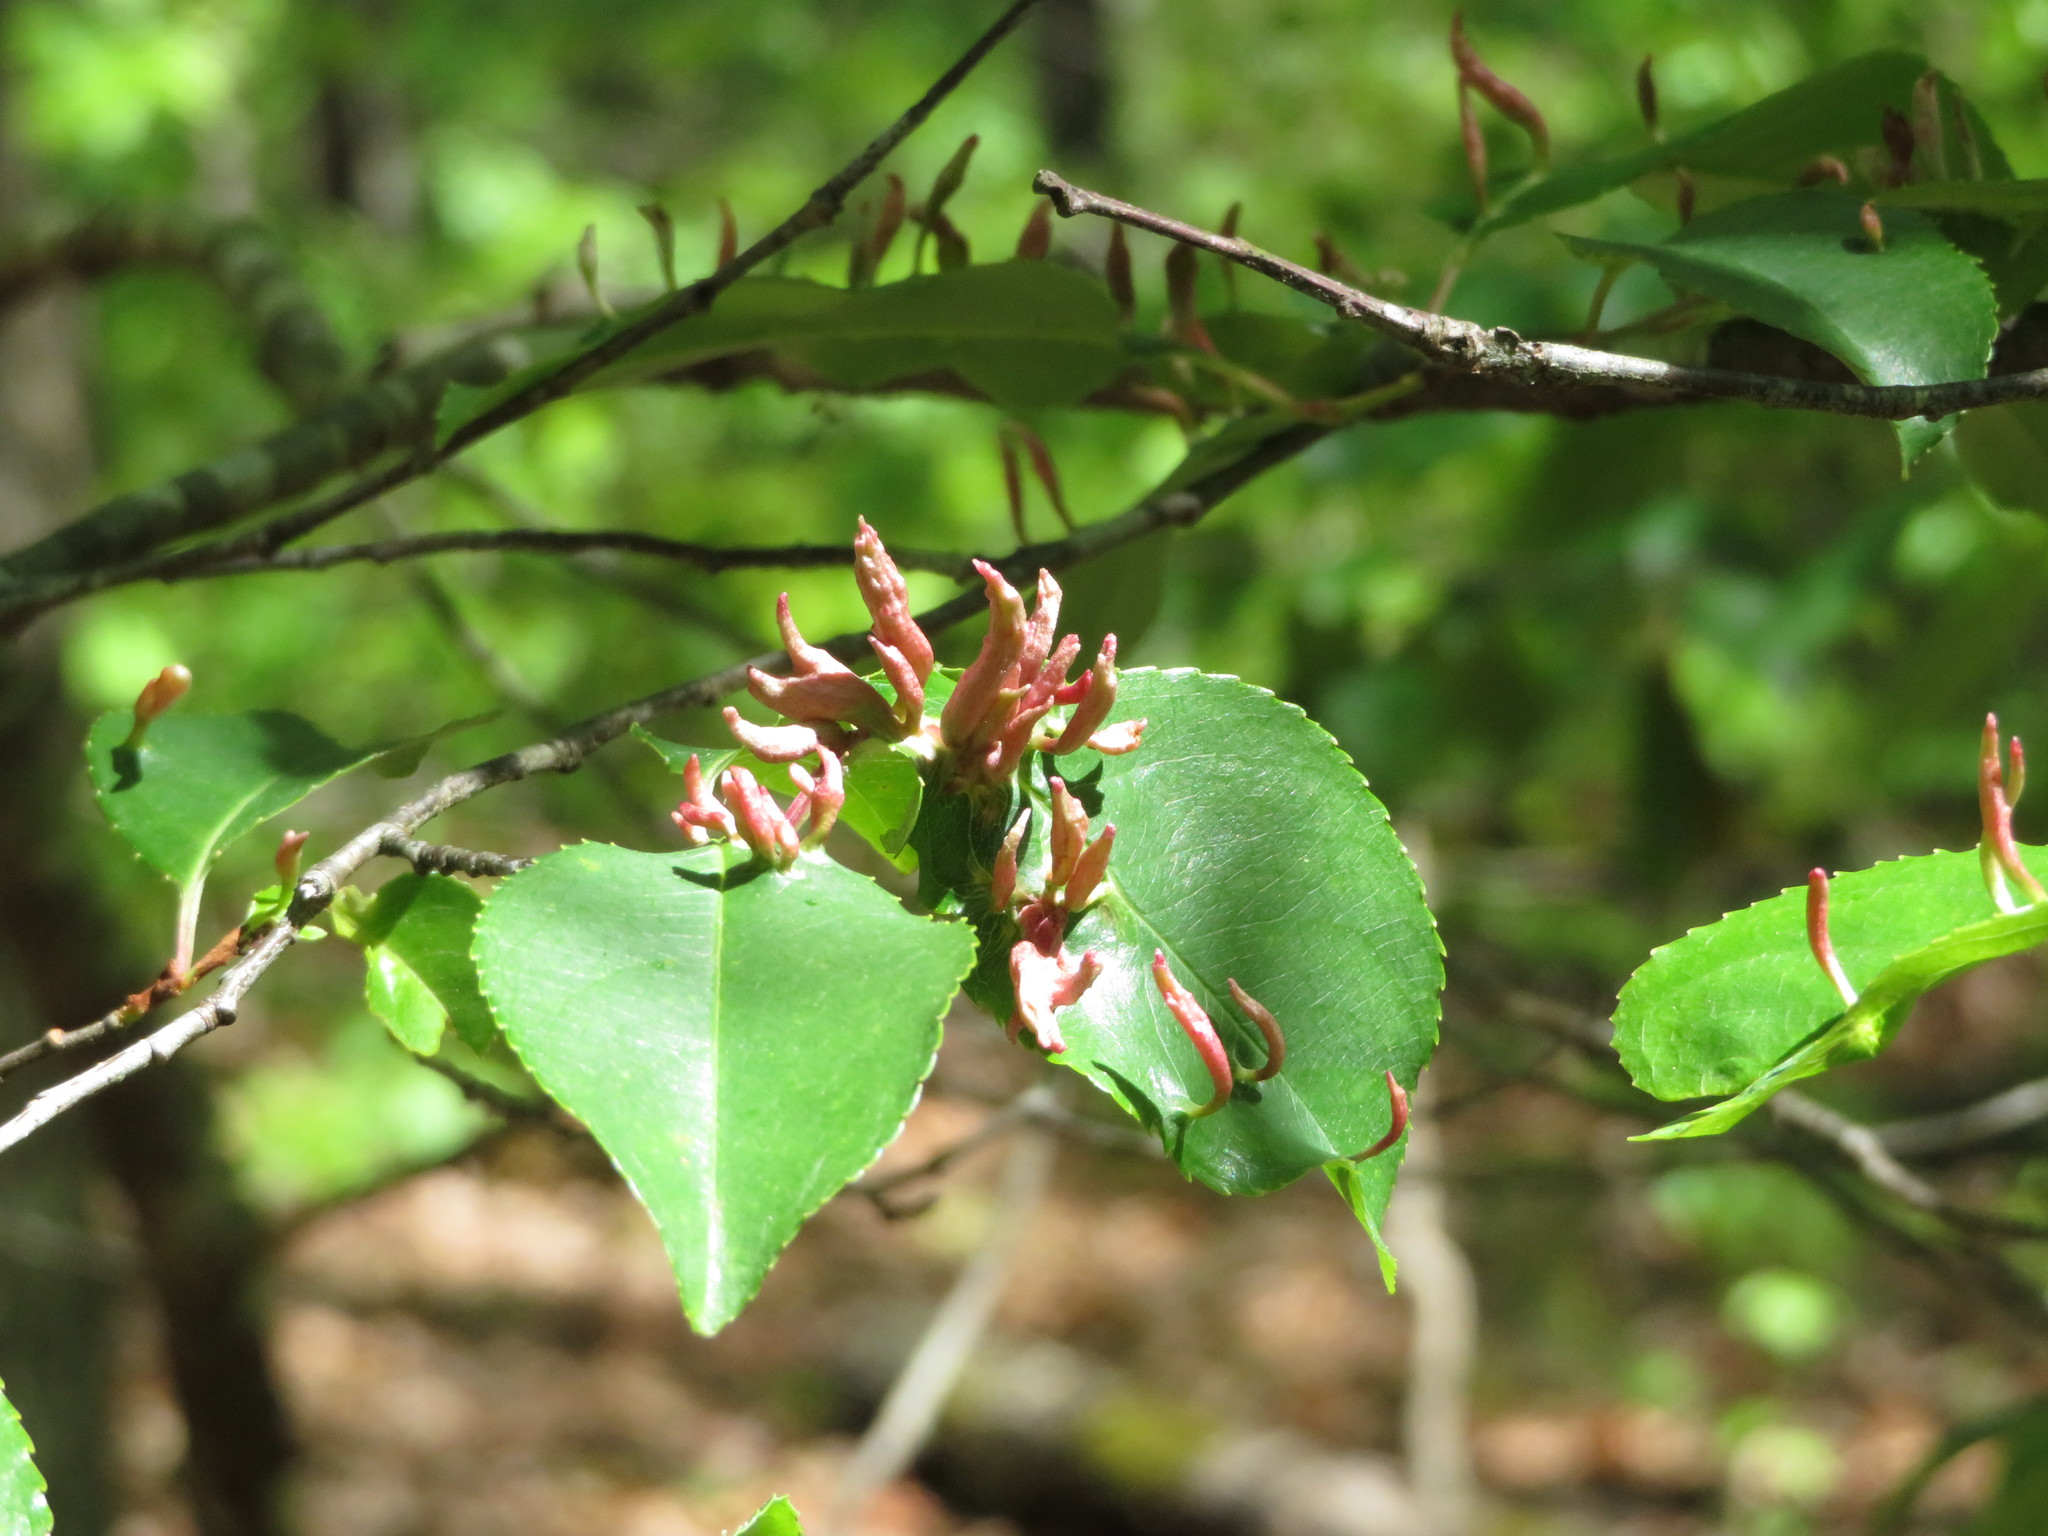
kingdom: Animalia
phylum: Arthropoda
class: Arachnida
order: Trombidiformes
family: Eriophyidae
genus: Eriophyes
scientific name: Eriophyes
